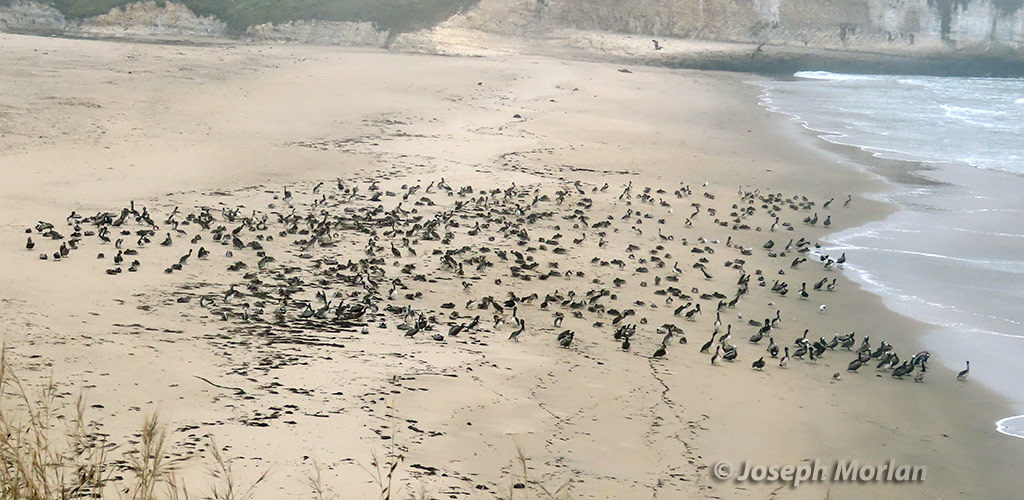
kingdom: Animalia
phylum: Chordata
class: Aves
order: Pelecaniformes
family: Pelecanidae
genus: Pelecanus
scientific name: Pelecanus occidentalis
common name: Brown pelican
